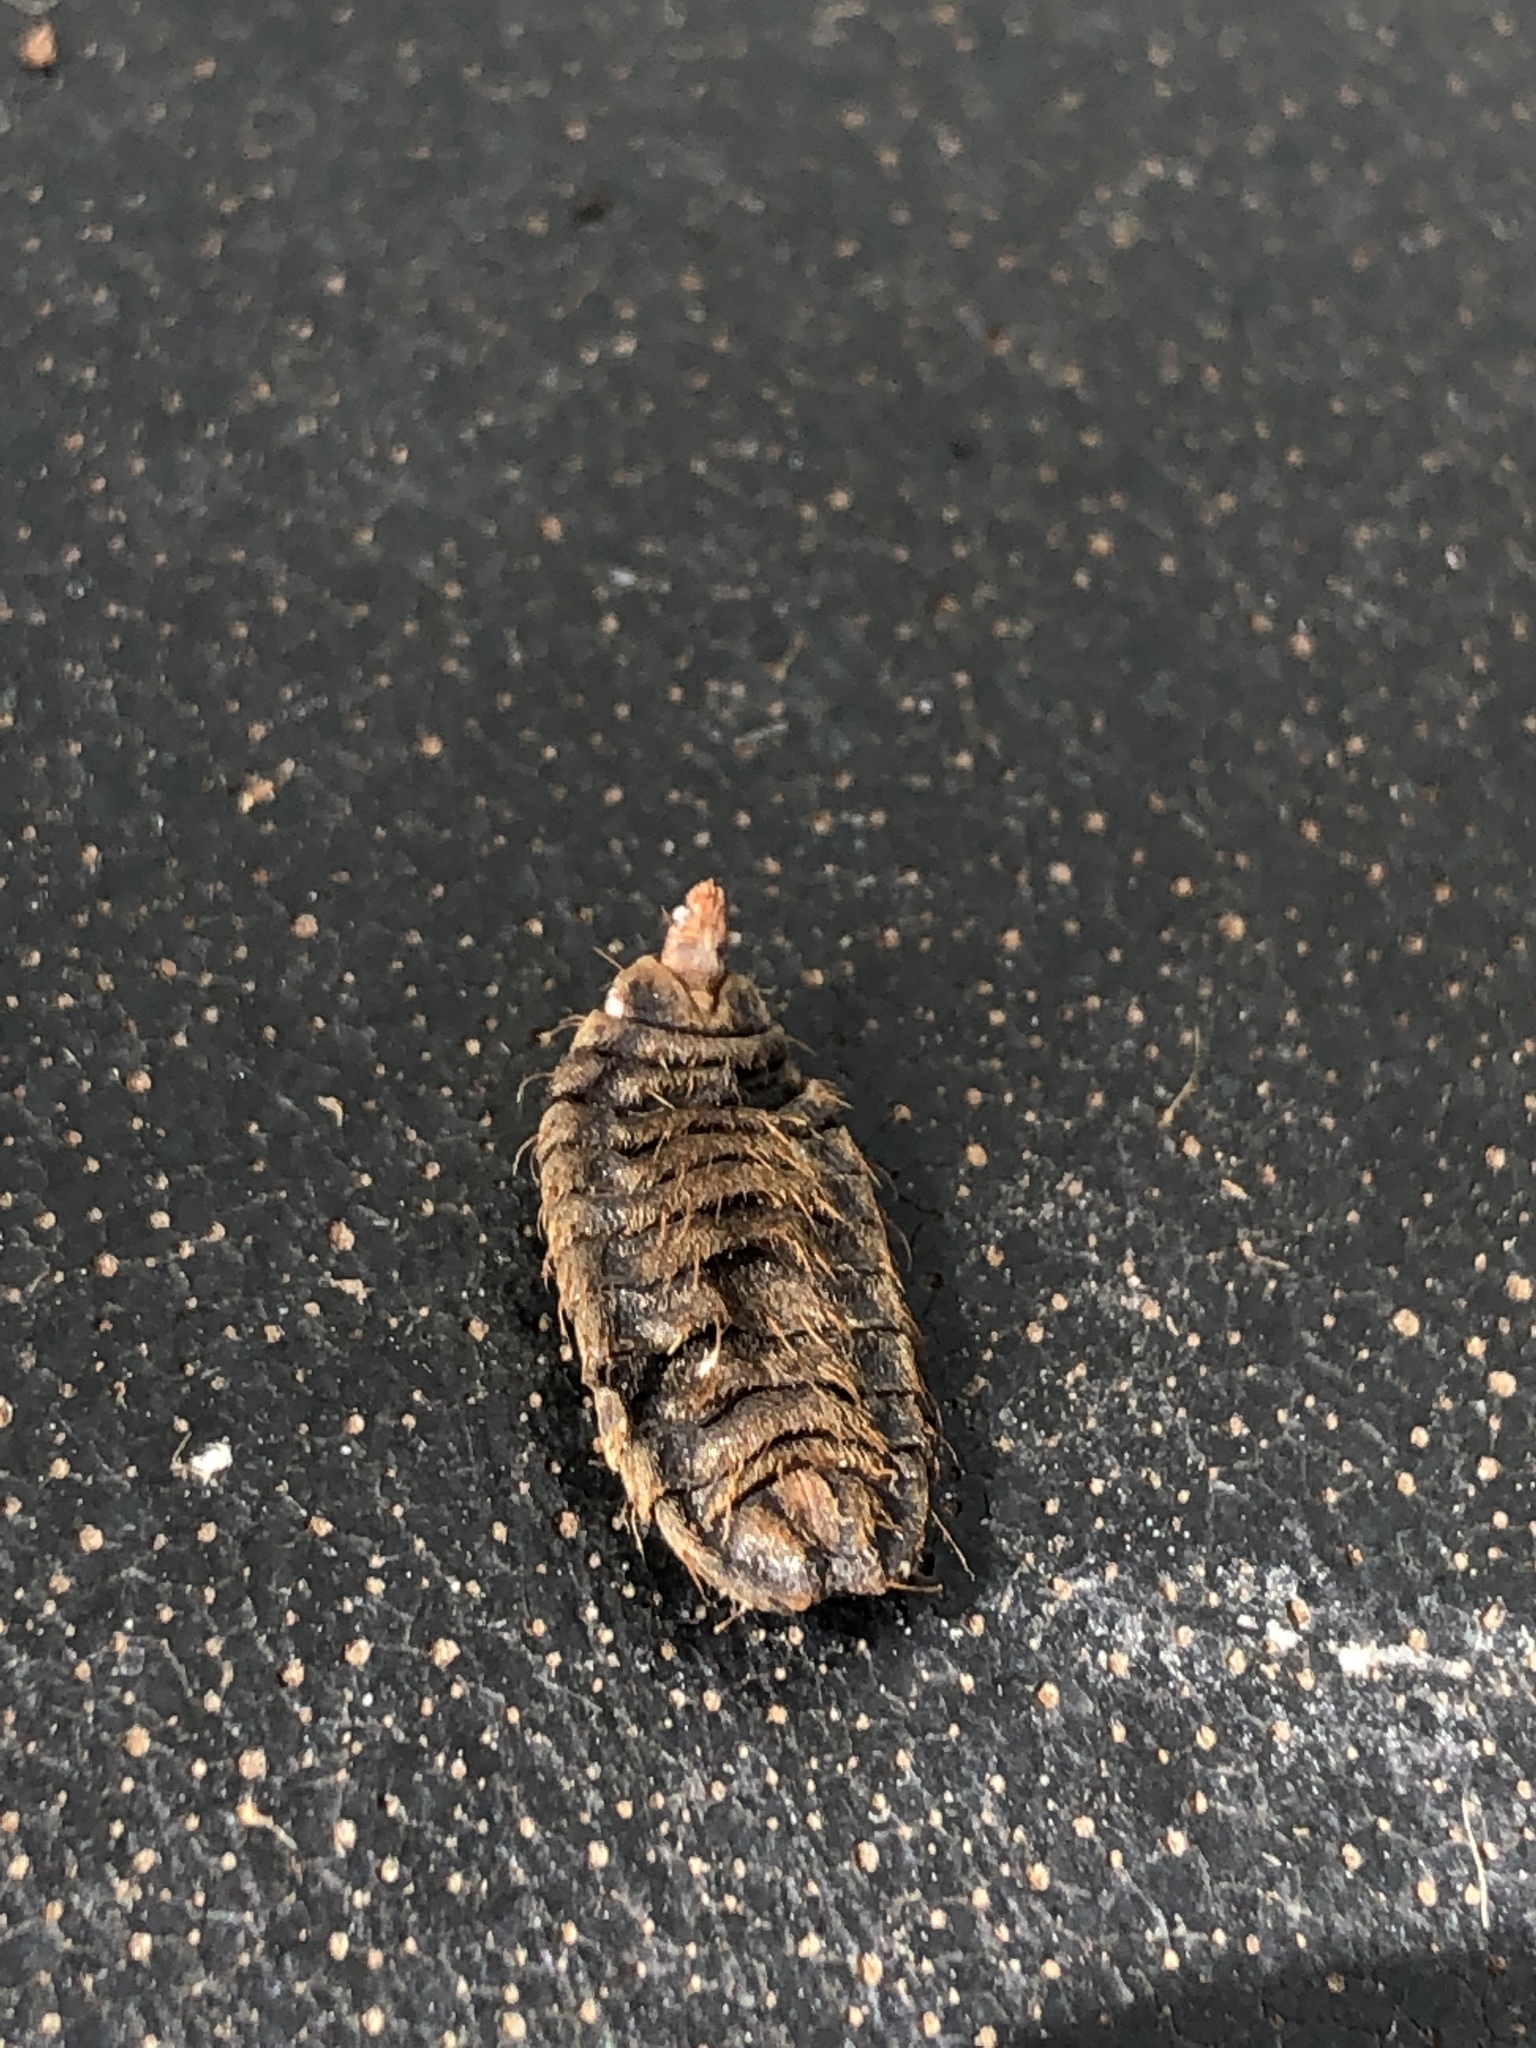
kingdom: Animalia
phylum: Arthropoda
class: Insecta
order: Diptera
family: Stratiomyidae
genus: Hermetia
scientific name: Hermetia illucens
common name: Black soldier fly
